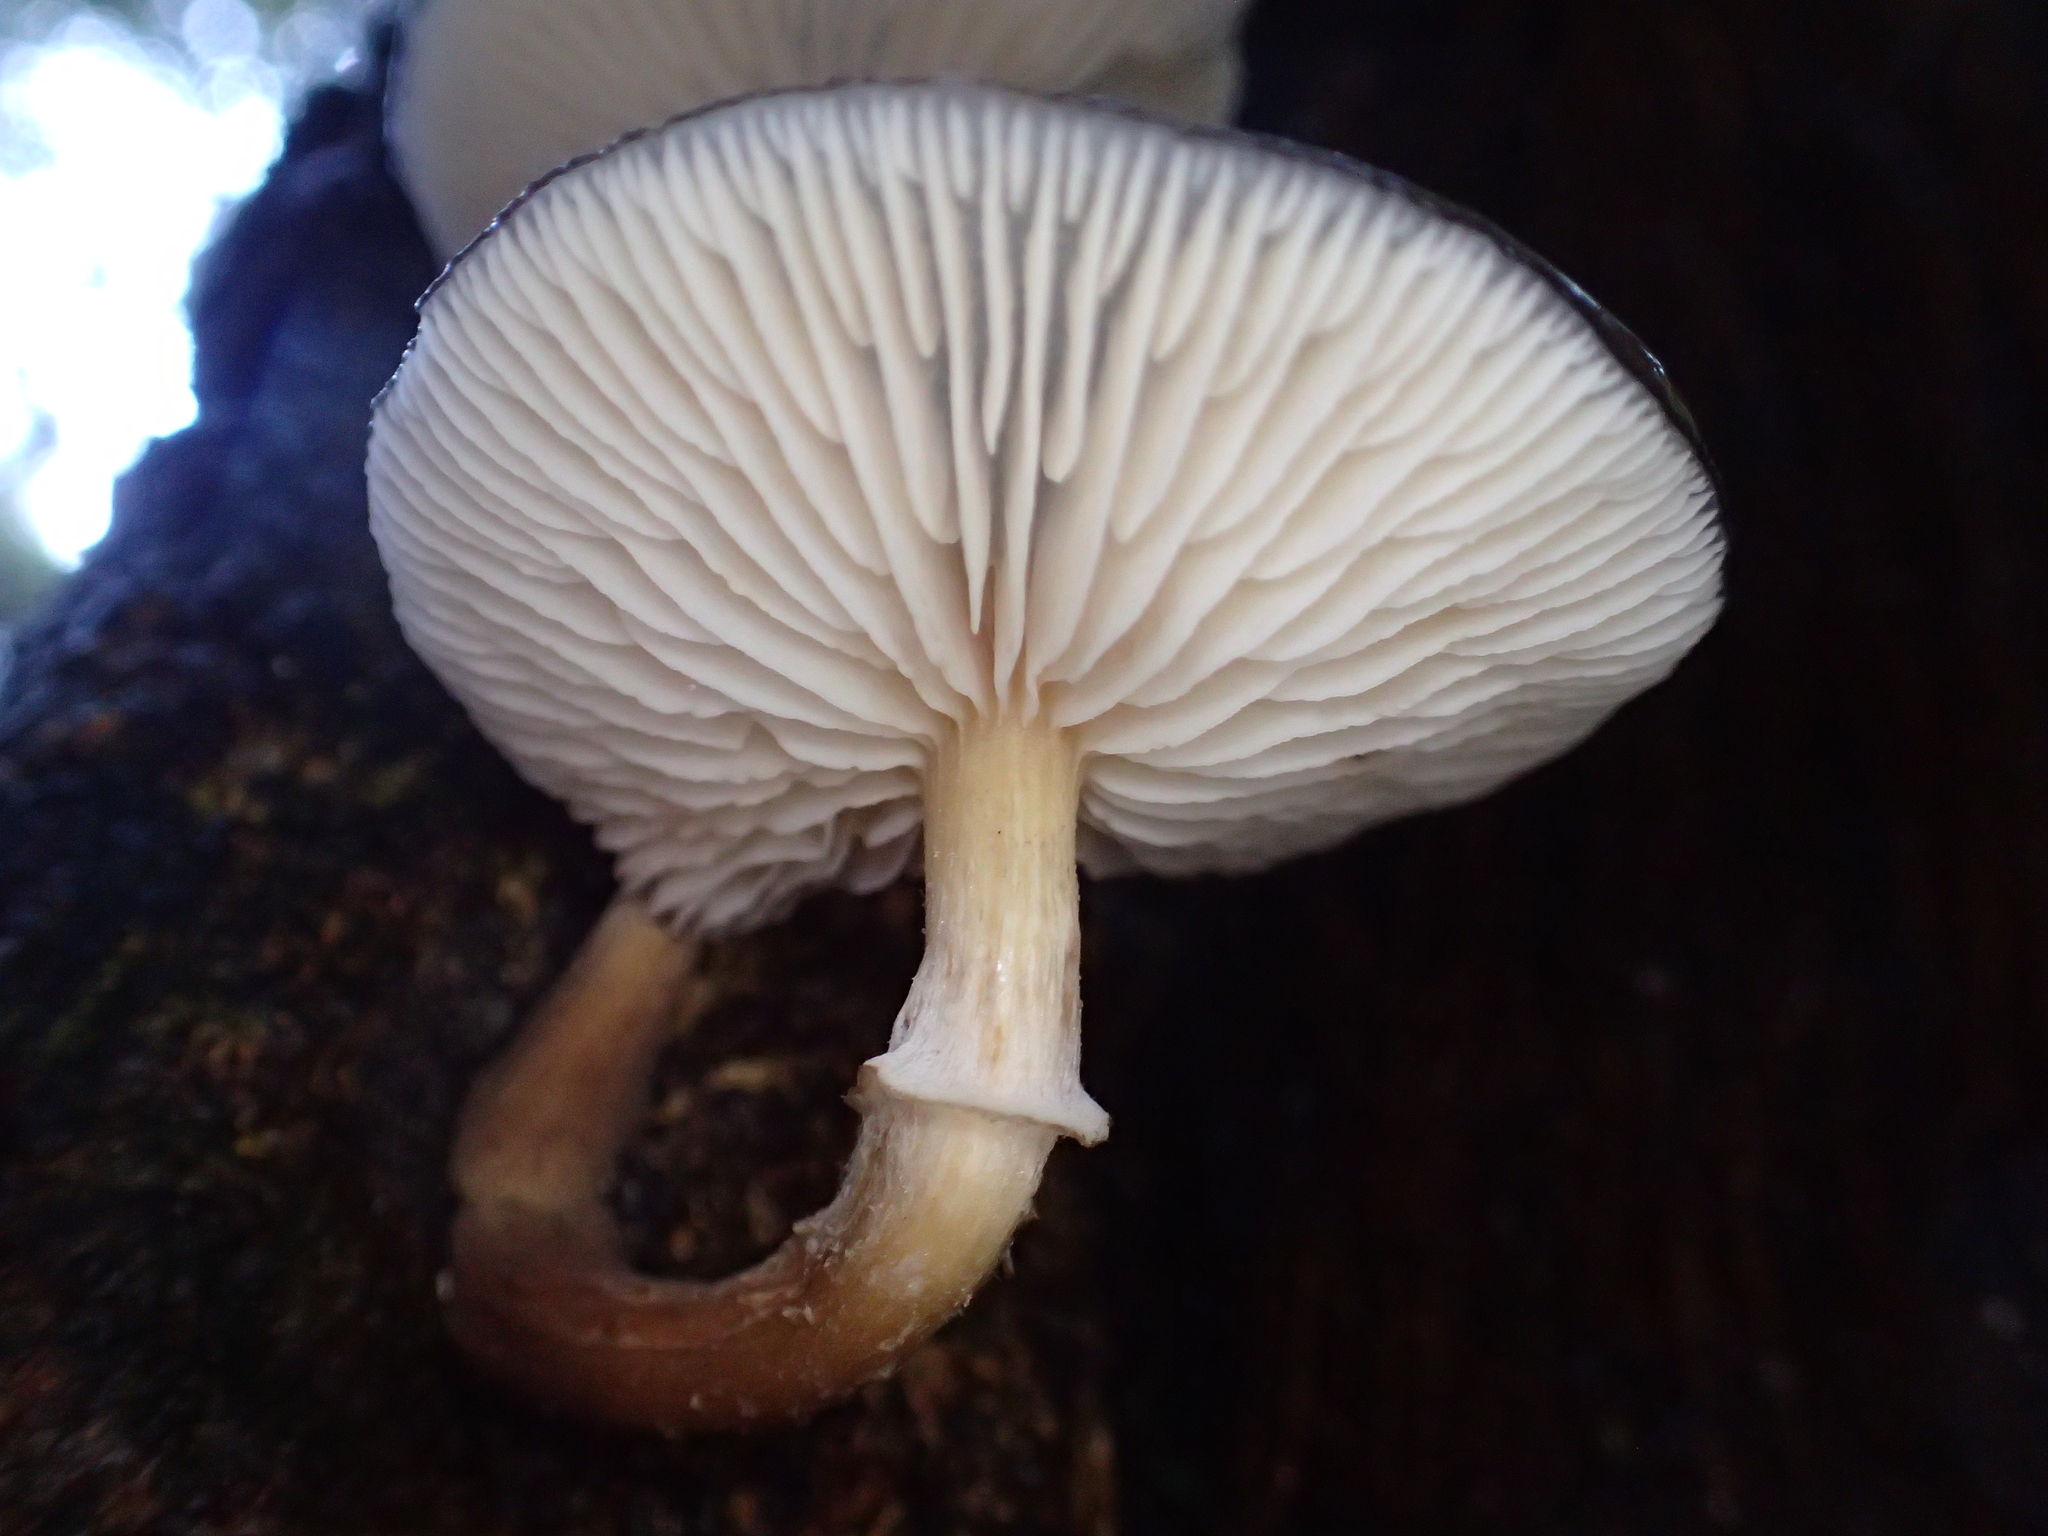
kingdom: Fungi
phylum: Basidiomycota
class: Agaricomycetes
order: Agaricales
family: Physalacriaceae
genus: Armillaria
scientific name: Armillaria novae-zelandiae
